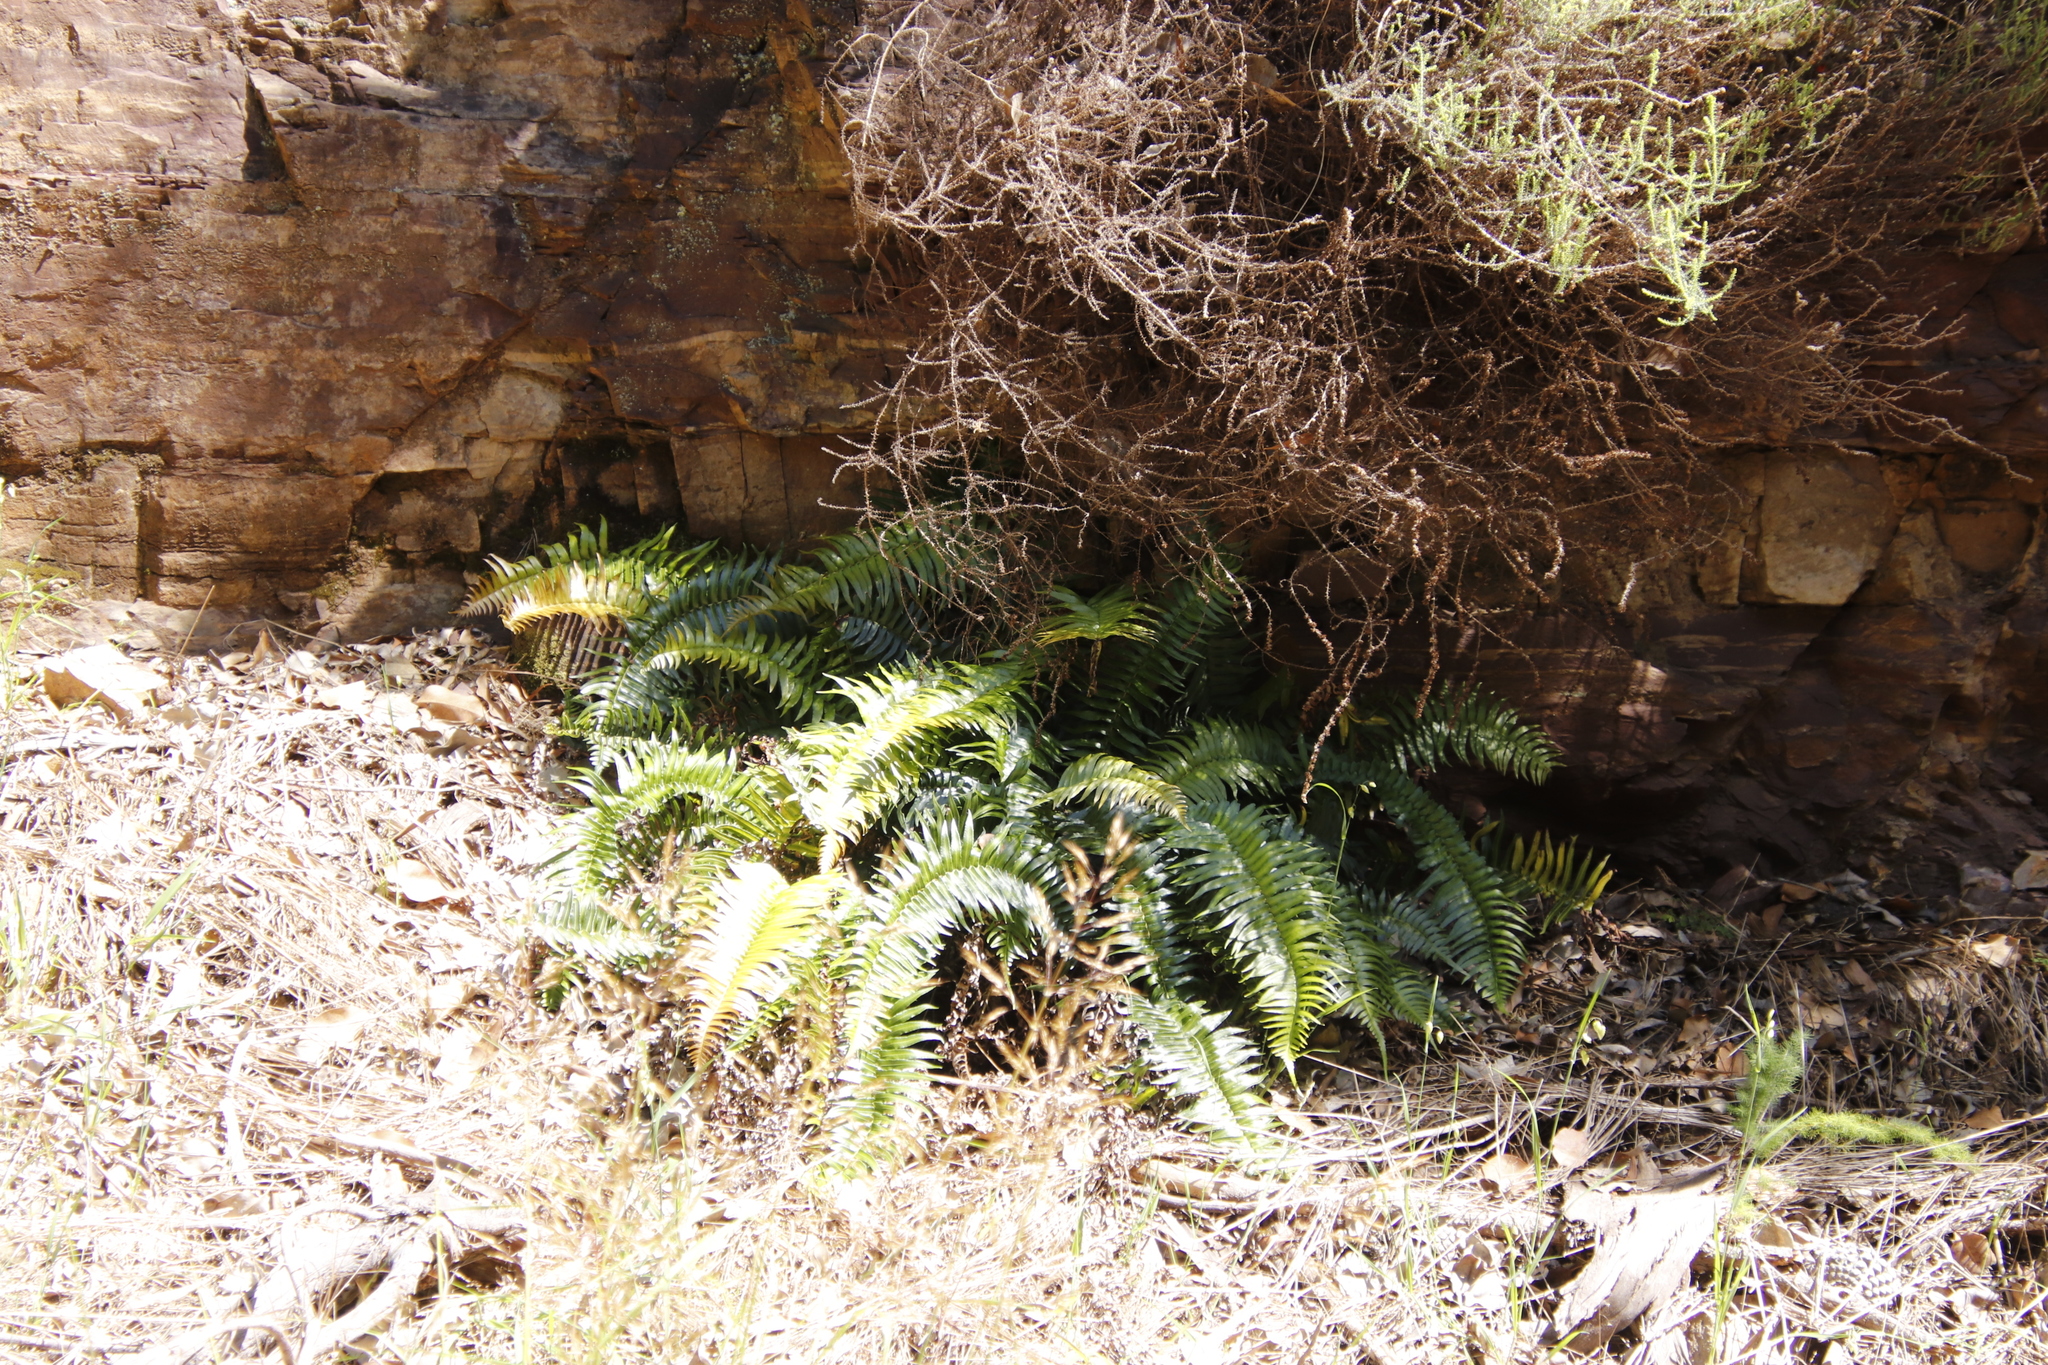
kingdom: Plantae
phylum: Tracheophyta
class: Polypodiopsida
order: Polypodiales
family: Blechnaceae
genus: Blechnum
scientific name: Blechnum punctulatum
